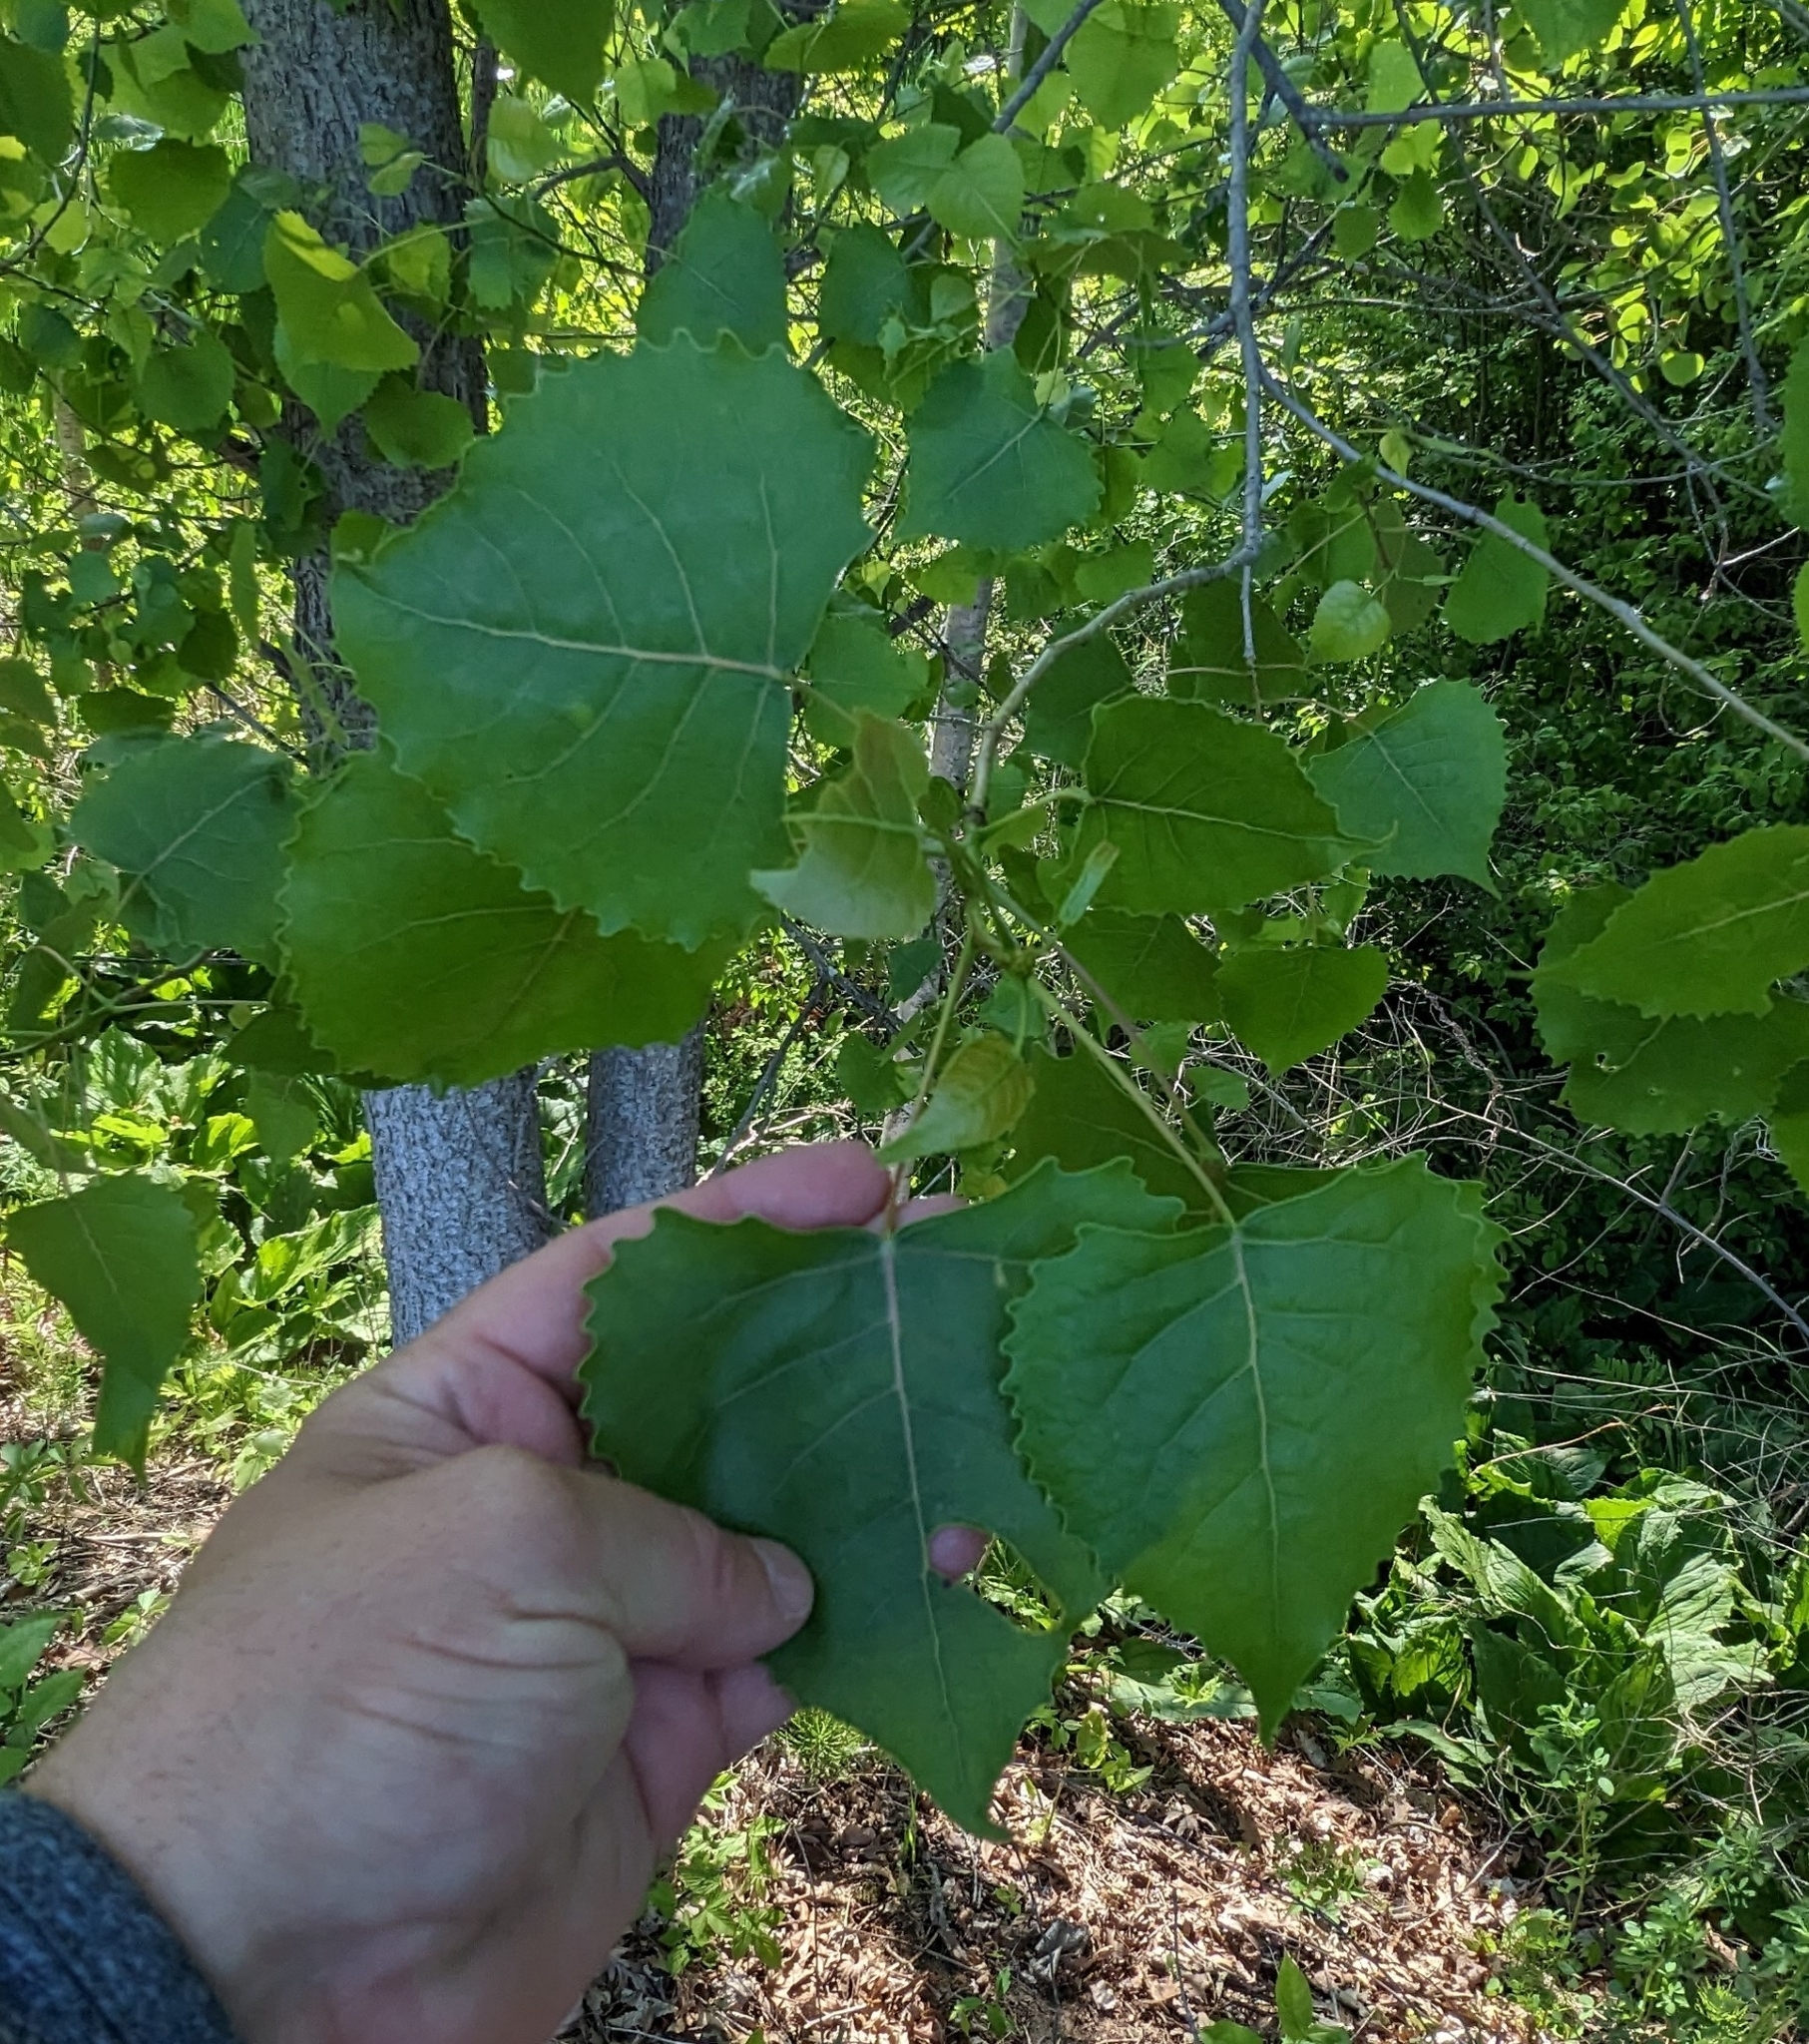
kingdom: Plantae
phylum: Tracheophyta
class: Magnoliopsida
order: Malpighiales
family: Salicaceae
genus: Populus
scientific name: Populus deltoides
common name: Eastern cottonwood
